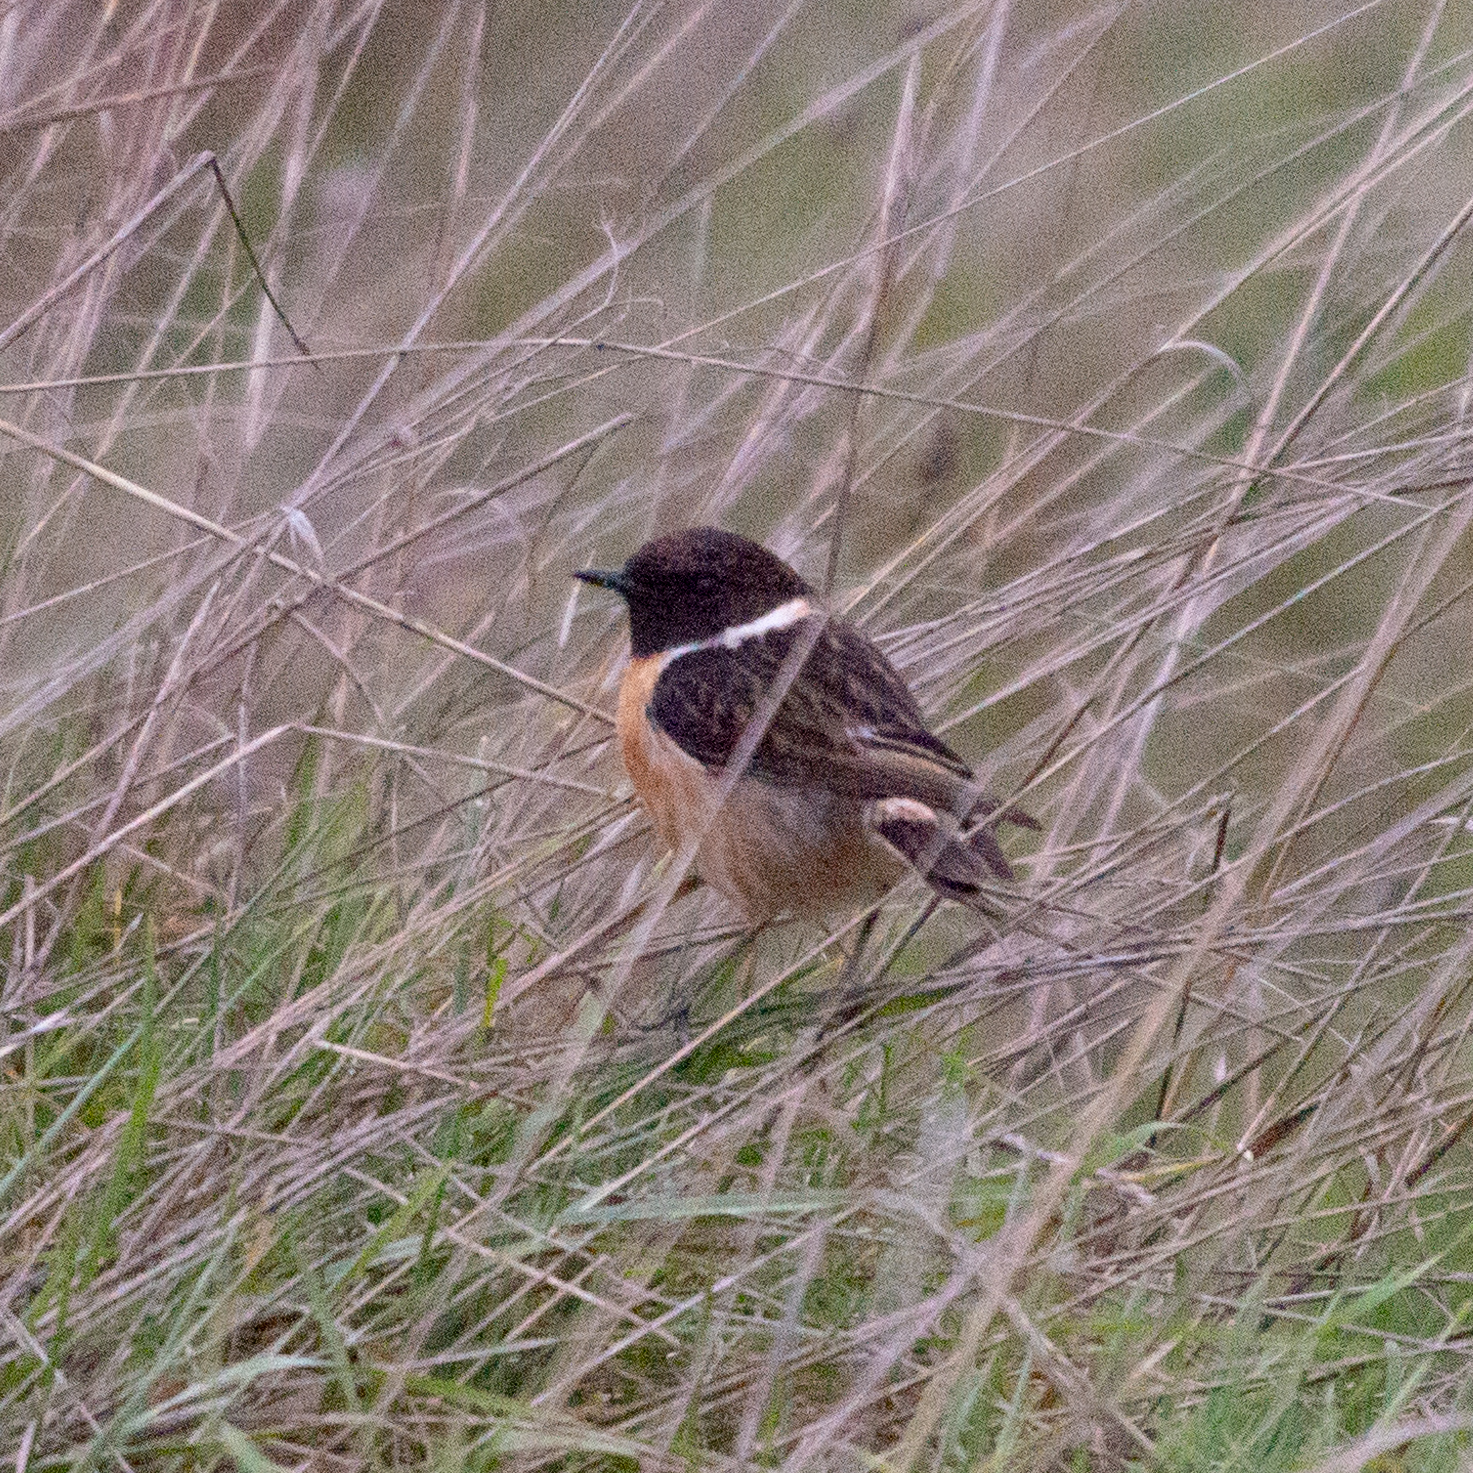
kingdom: Animalia
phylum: Chordata
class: Aves
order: Passeriformes
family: Muscicapidae
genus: Saxicola
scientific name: Saxicola rubicola
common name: European stonechat
